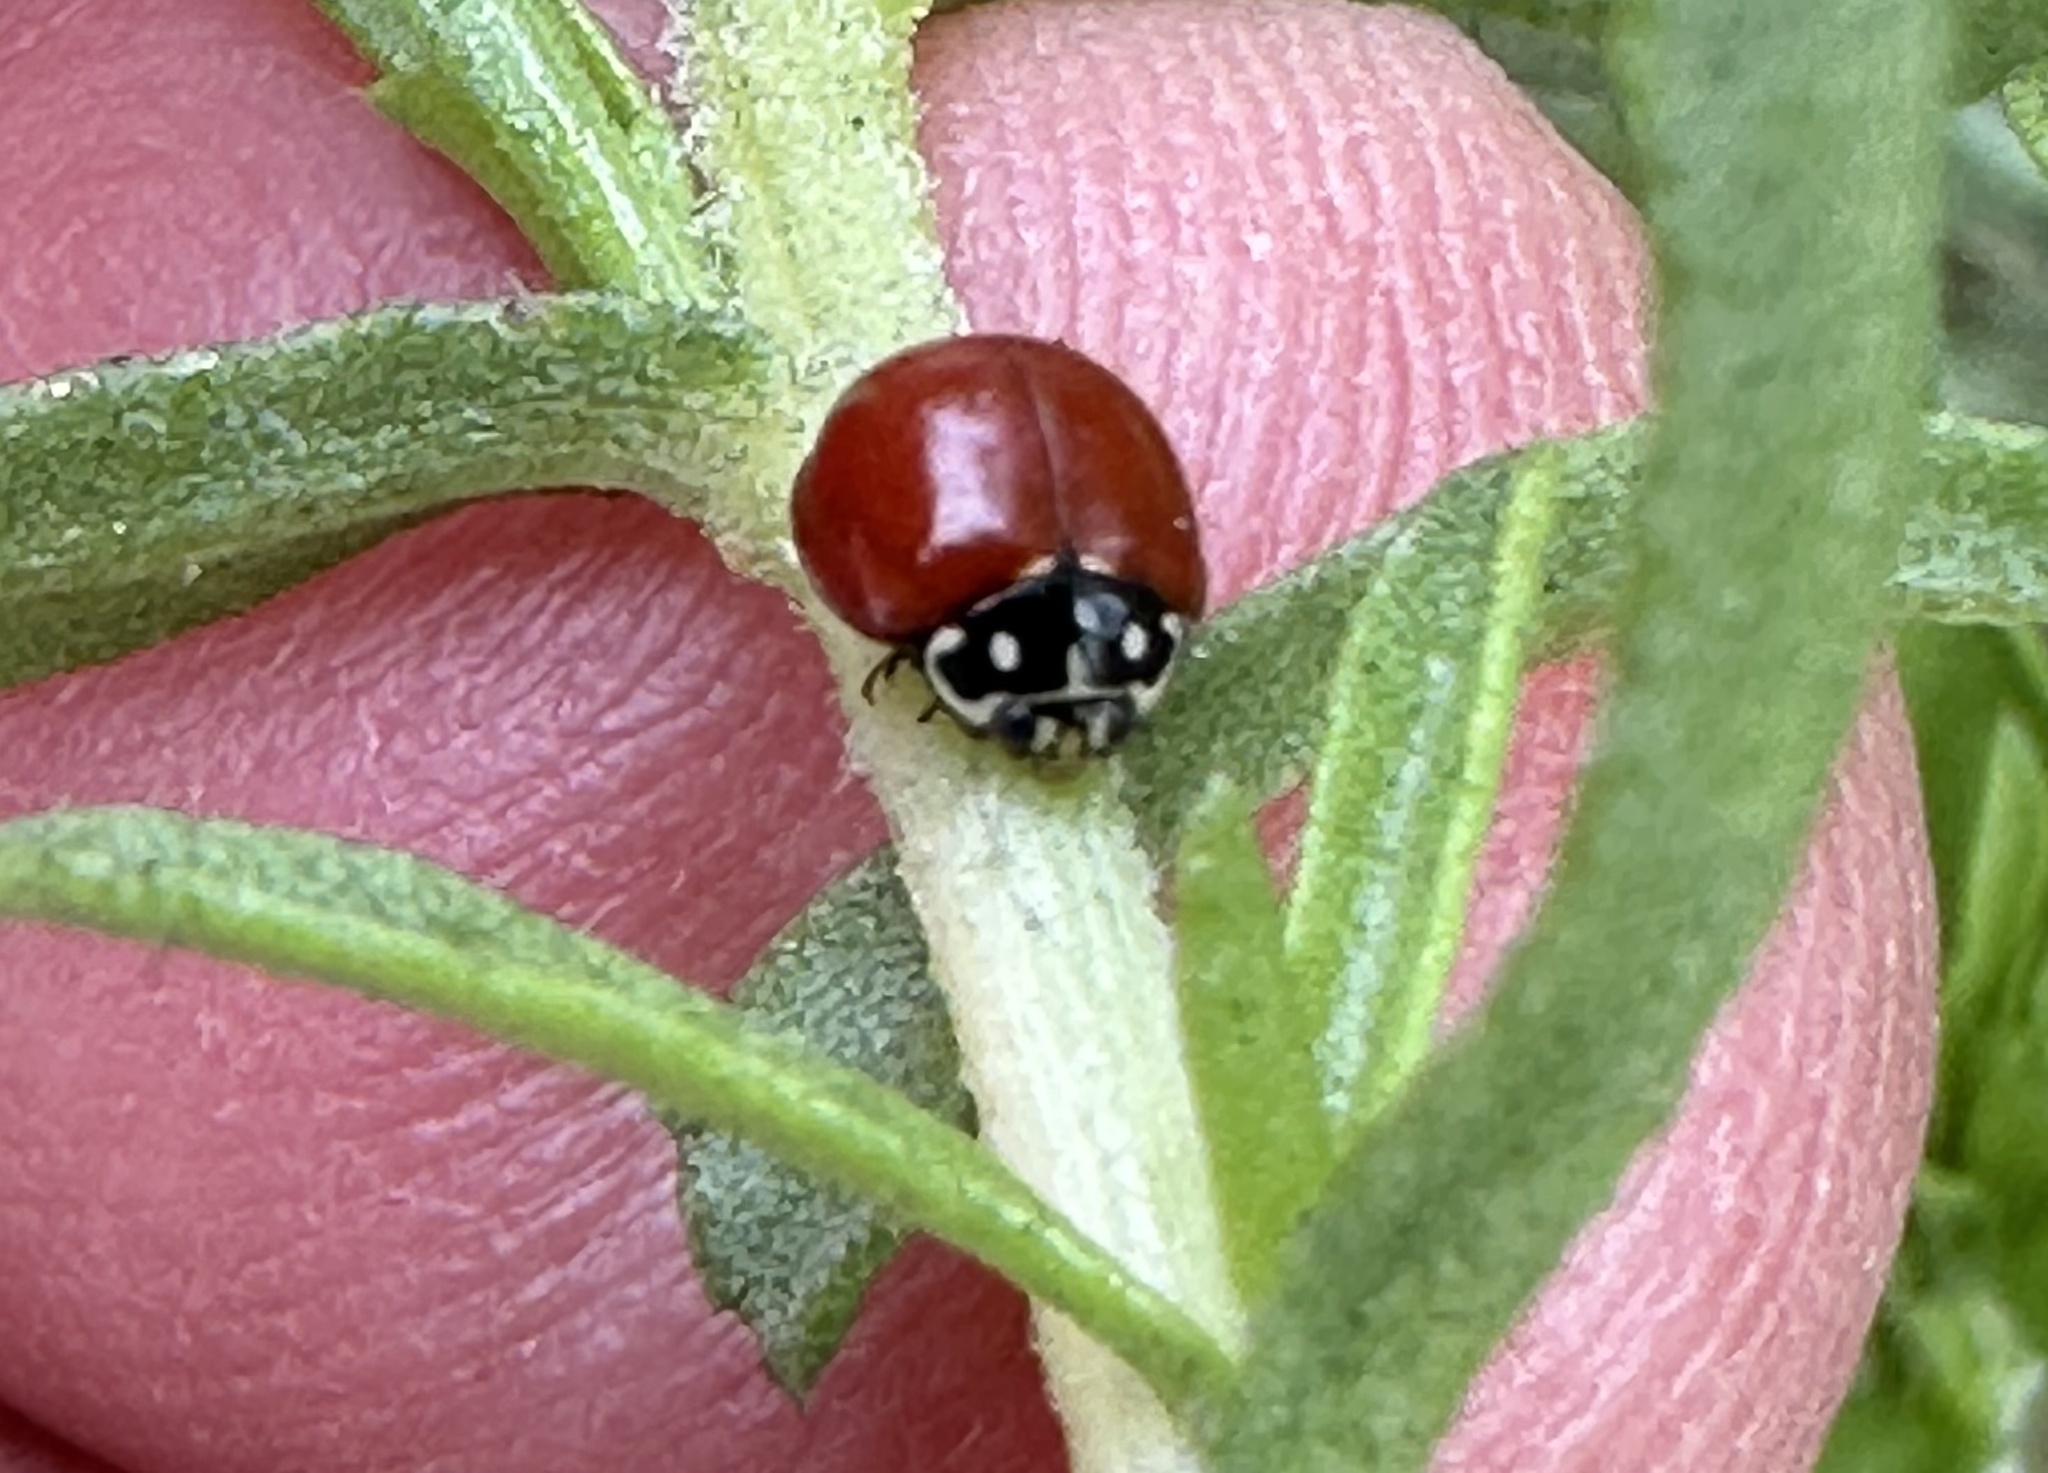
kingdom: Animalia
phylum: Arthropoda
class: Insecta
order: Coleoptera
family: Coccinellidae
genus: Cycloneda
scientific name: Cycloneda sanguinea
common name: Ladybird beetle
